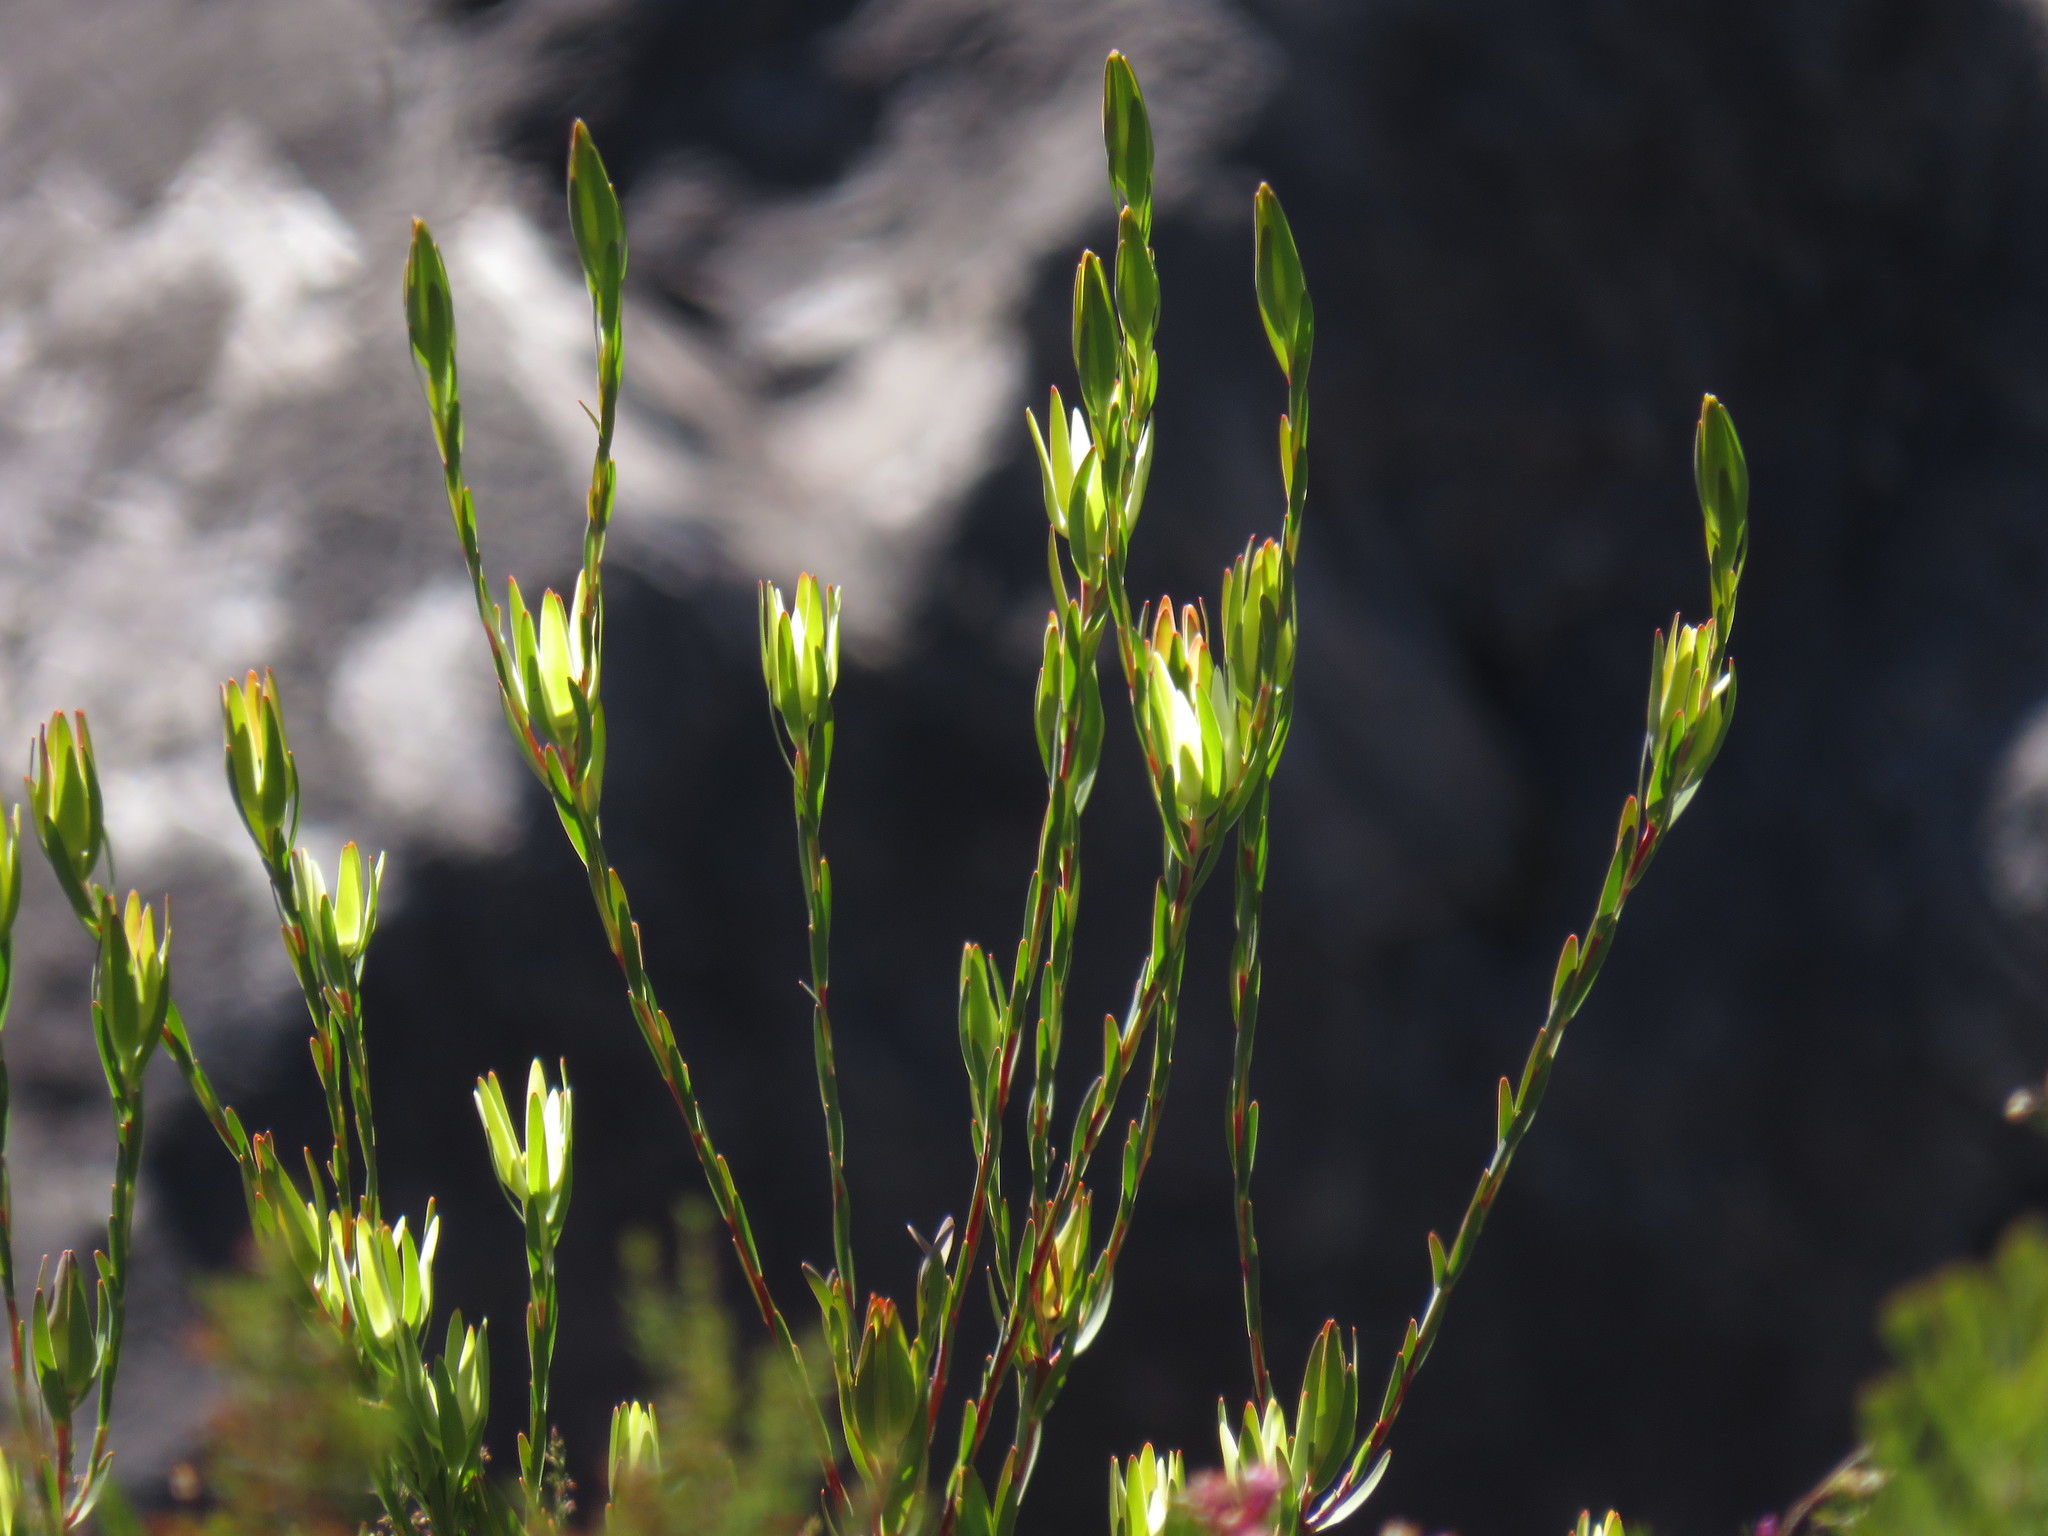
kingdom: Plantae
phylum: Tracheophyta
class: Magnoliopsida
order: Proteales
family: Proteaceae
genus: Leucadendron
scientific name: Leucadendron diemontianum
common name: Visgat conebush
